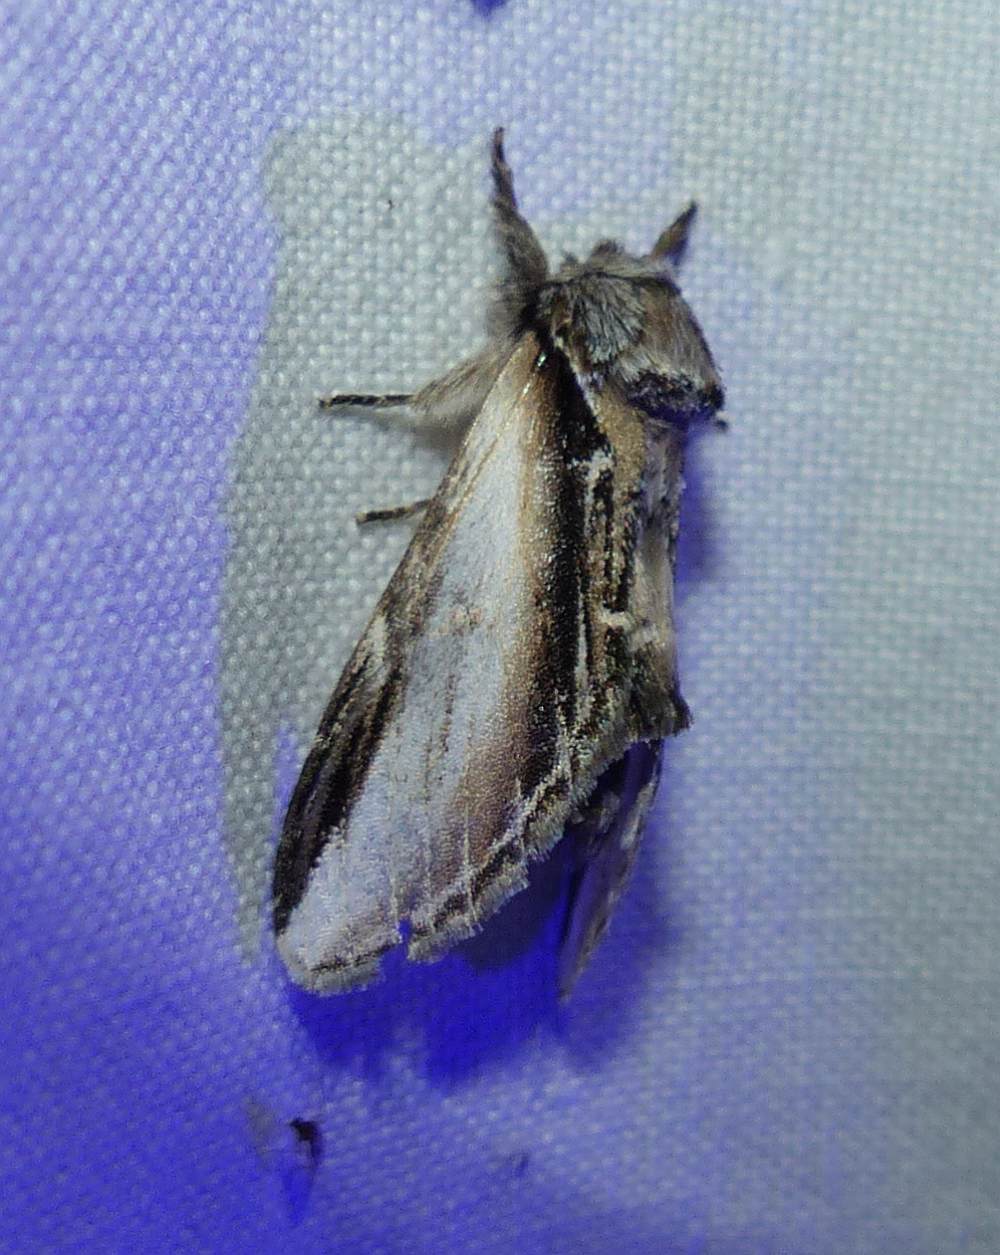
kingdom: Animalia
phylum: Arthropoda
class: Insecta
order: Lepidoptera
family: Notodontidae
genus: Pheosia
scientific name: Pheosia rimosa
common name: Black-rimmed prominent
